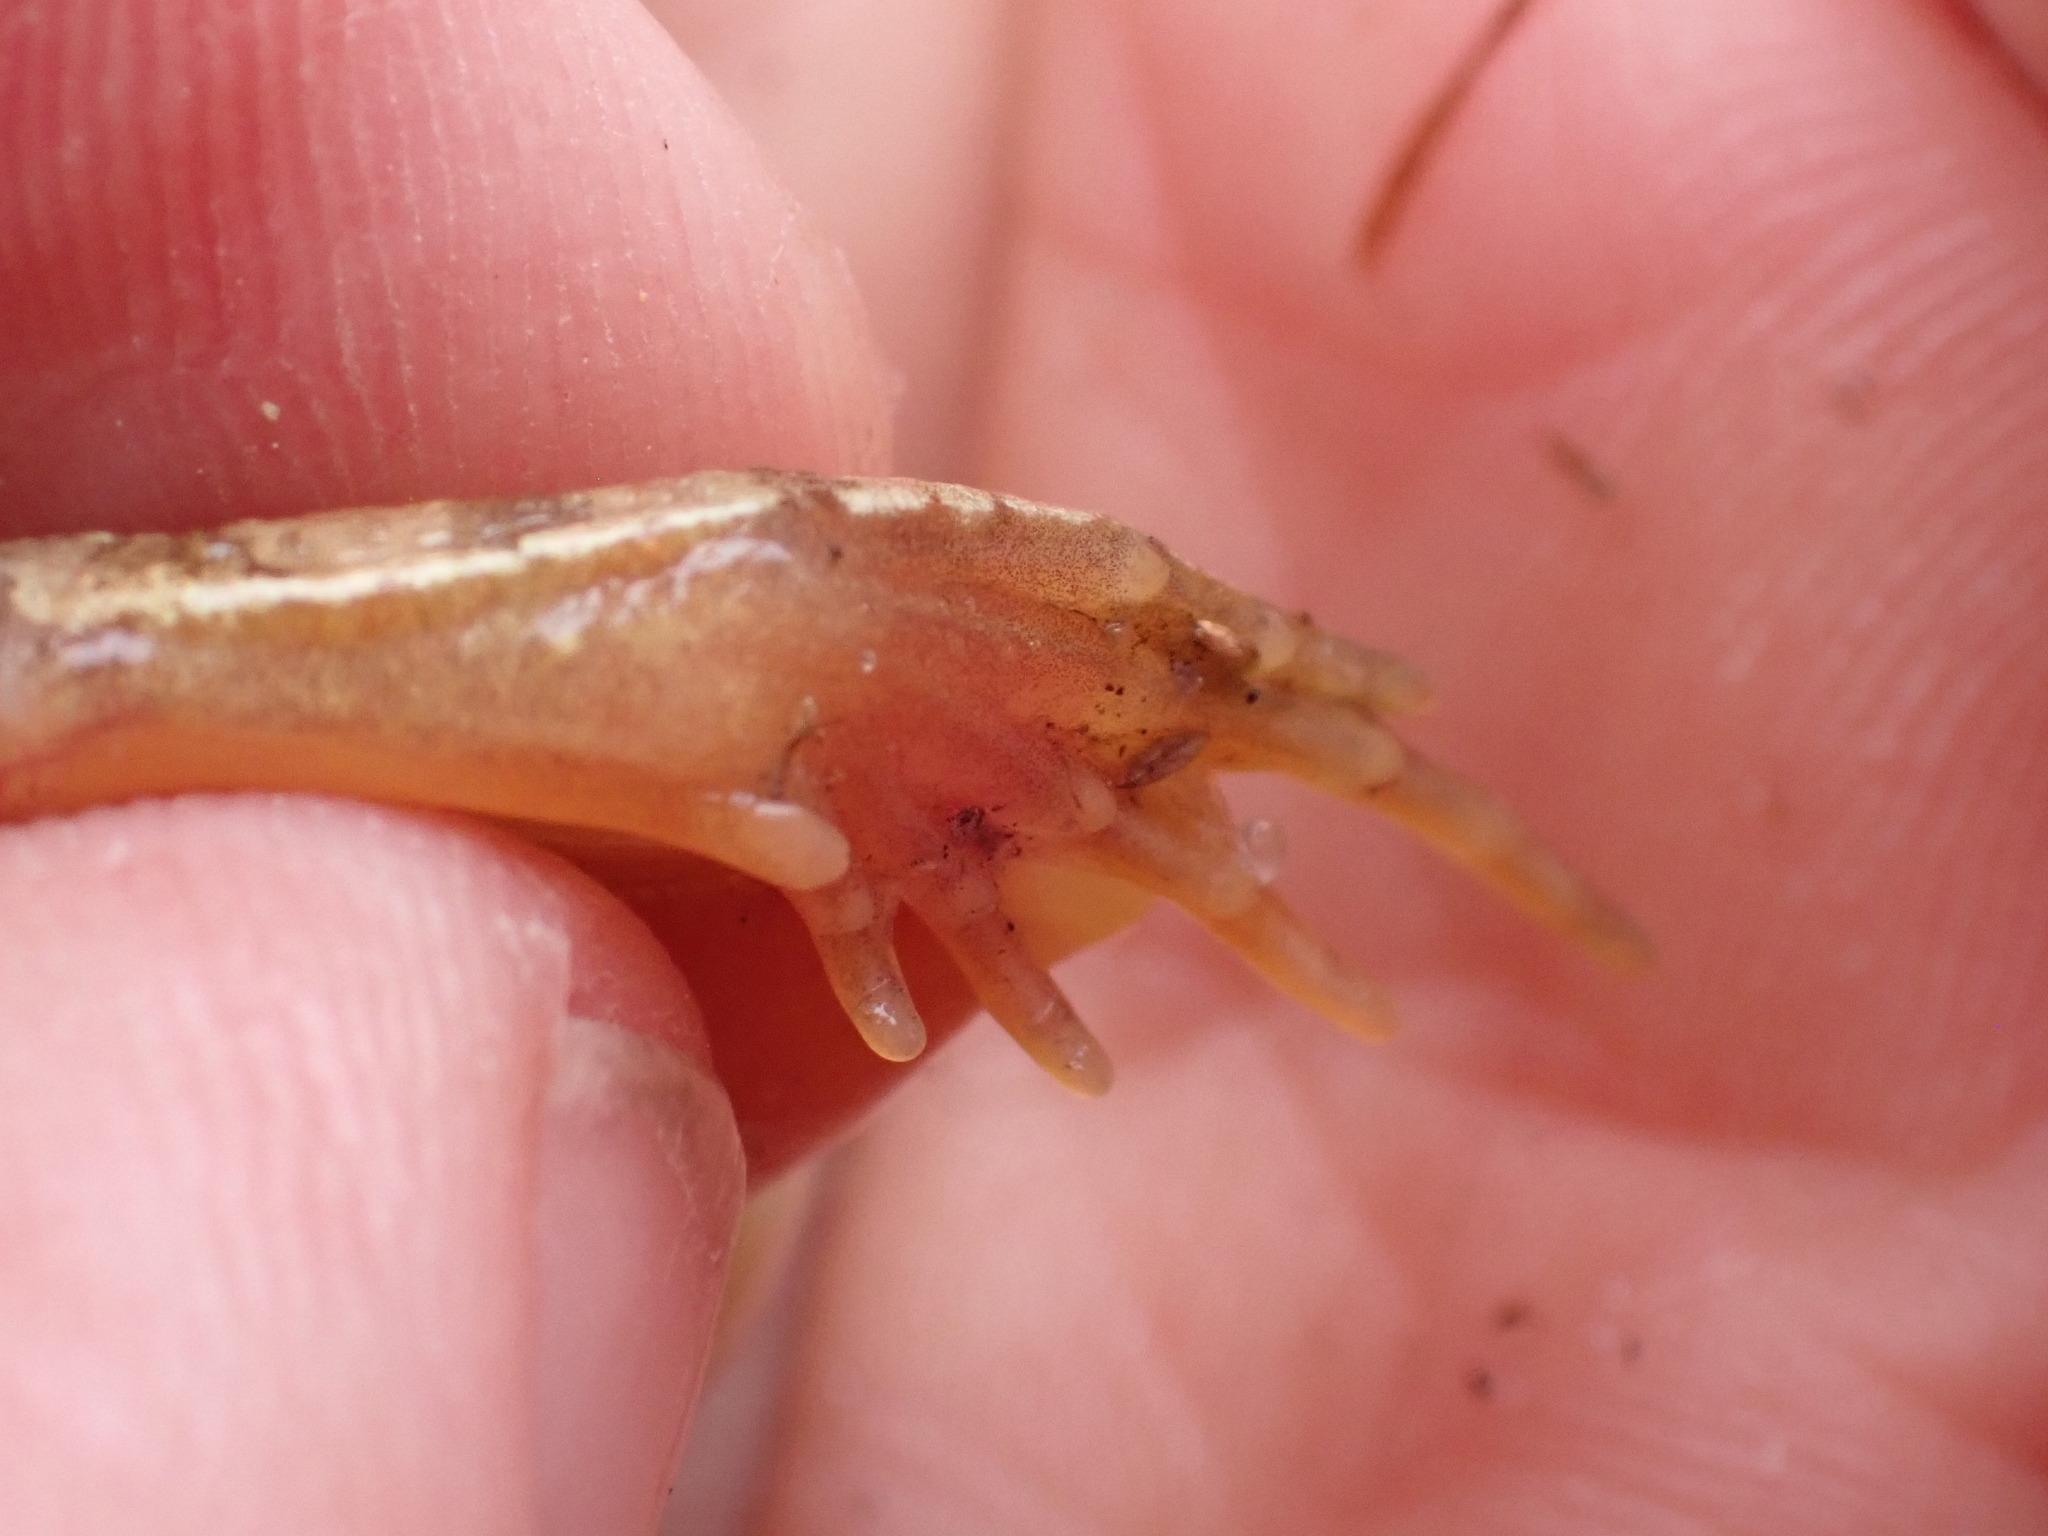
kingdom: Animalia
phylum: Chordata
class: Amphibia
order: Anura
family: Ranidae
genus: Rana
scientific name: Rana arvalis
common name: Moor frog
